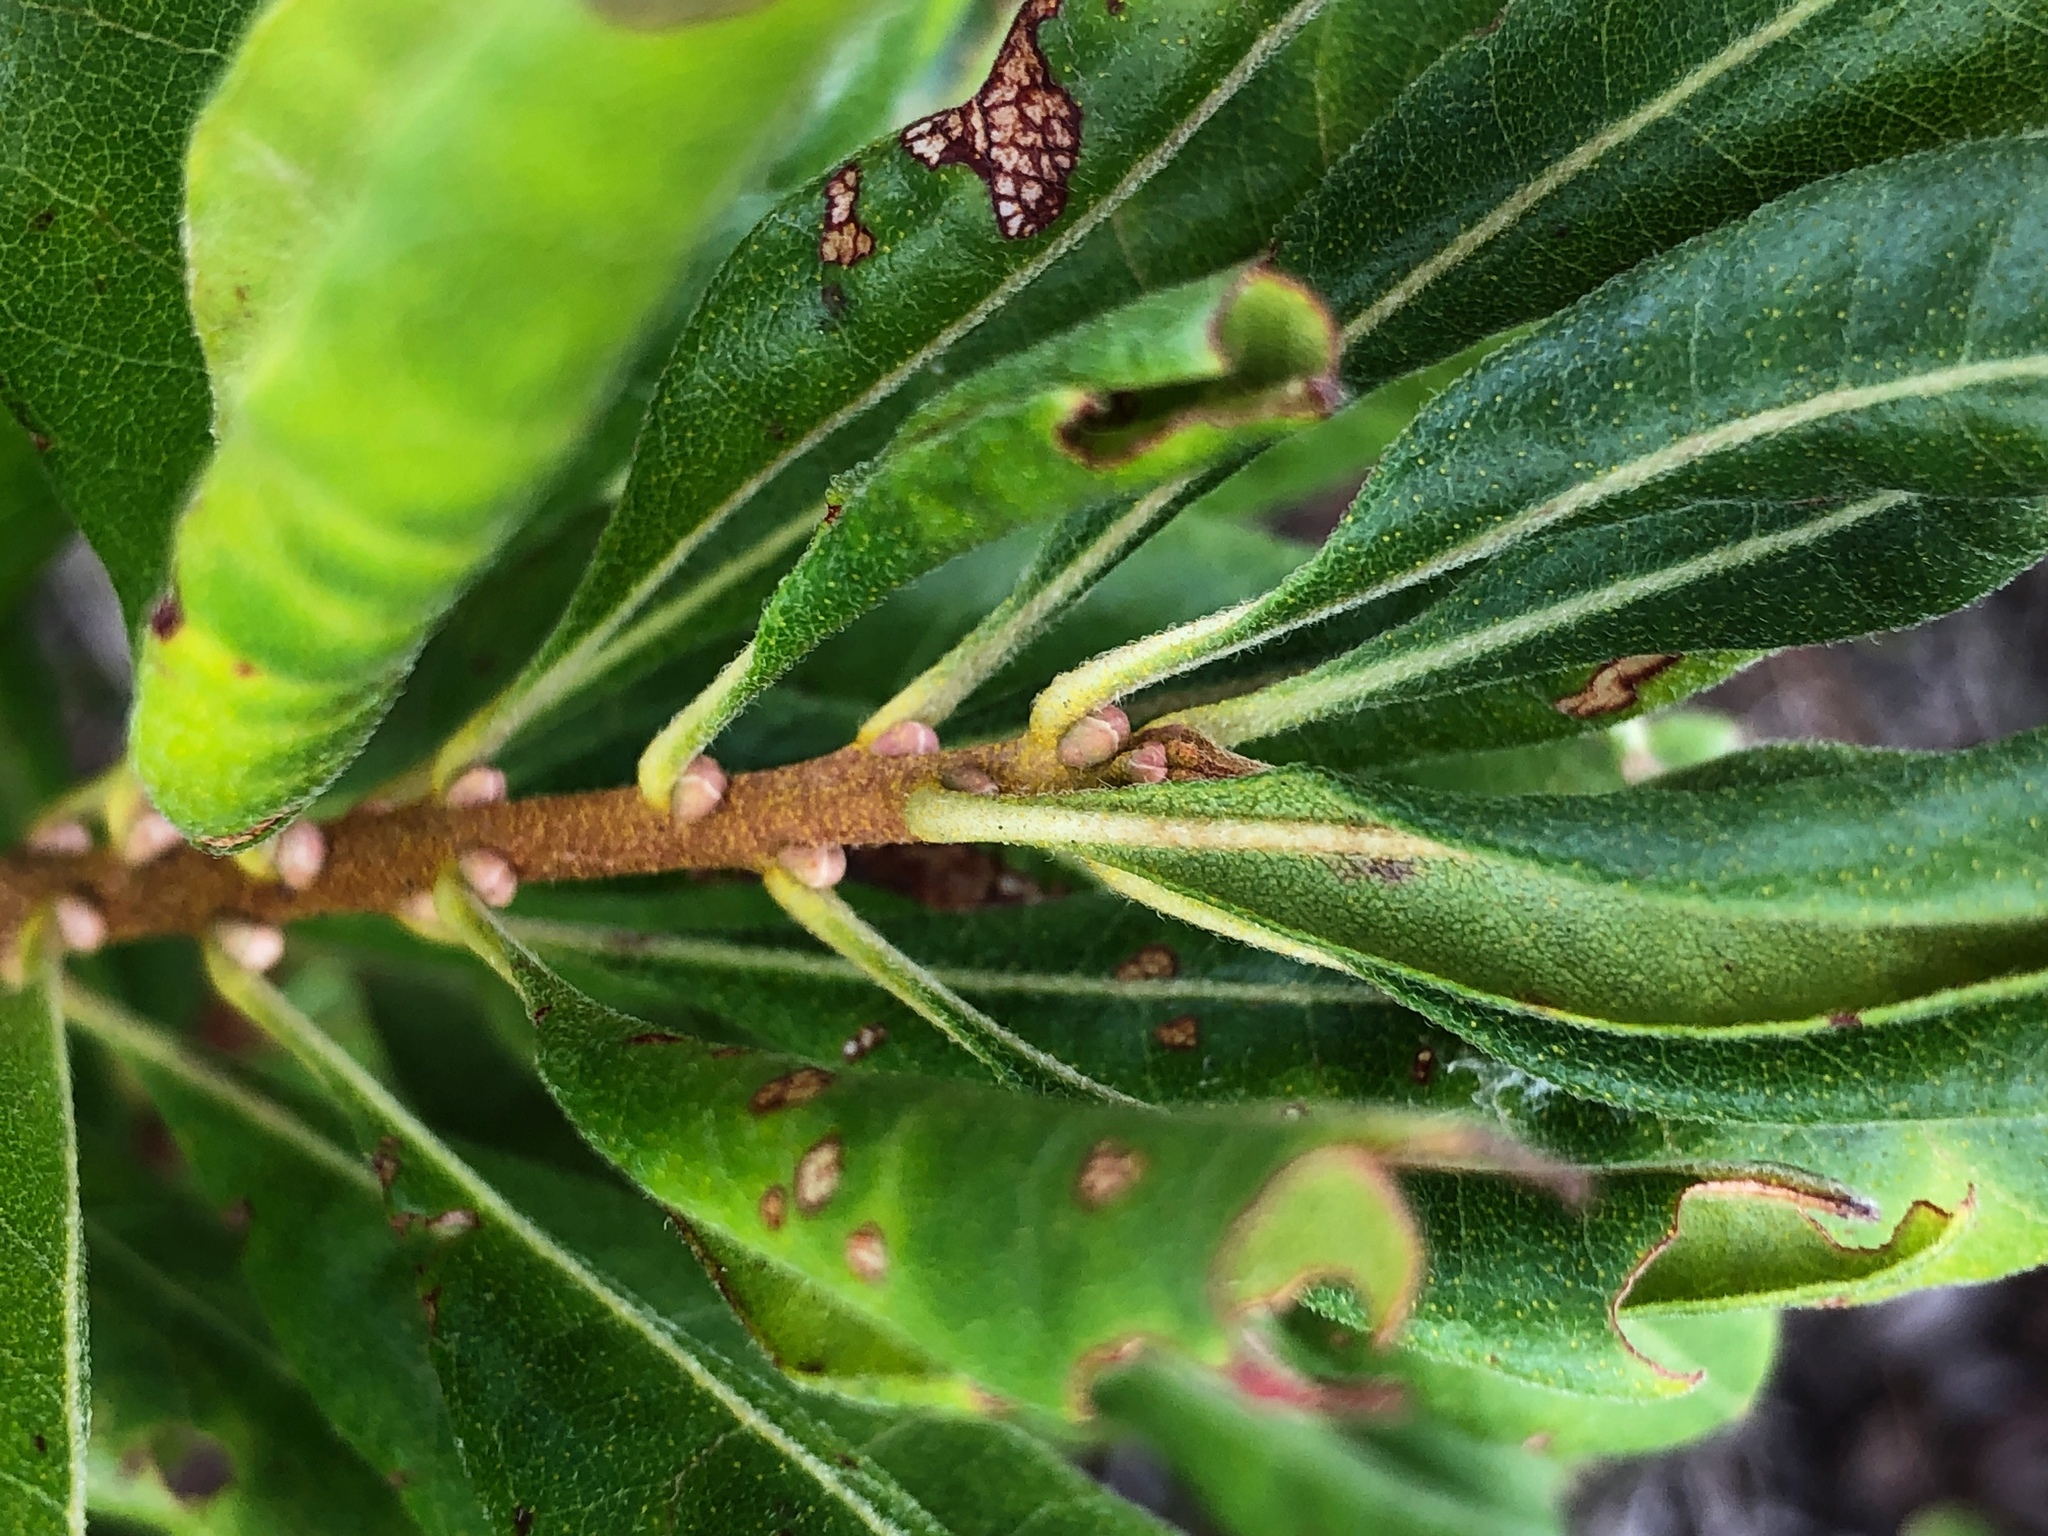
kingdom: Plantae
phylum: Tracheophyta
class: Magnoliopsida
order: Fagales
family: Myricaceae
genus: Morella
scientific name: Morella pensylvanica
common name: Northern bayberry
